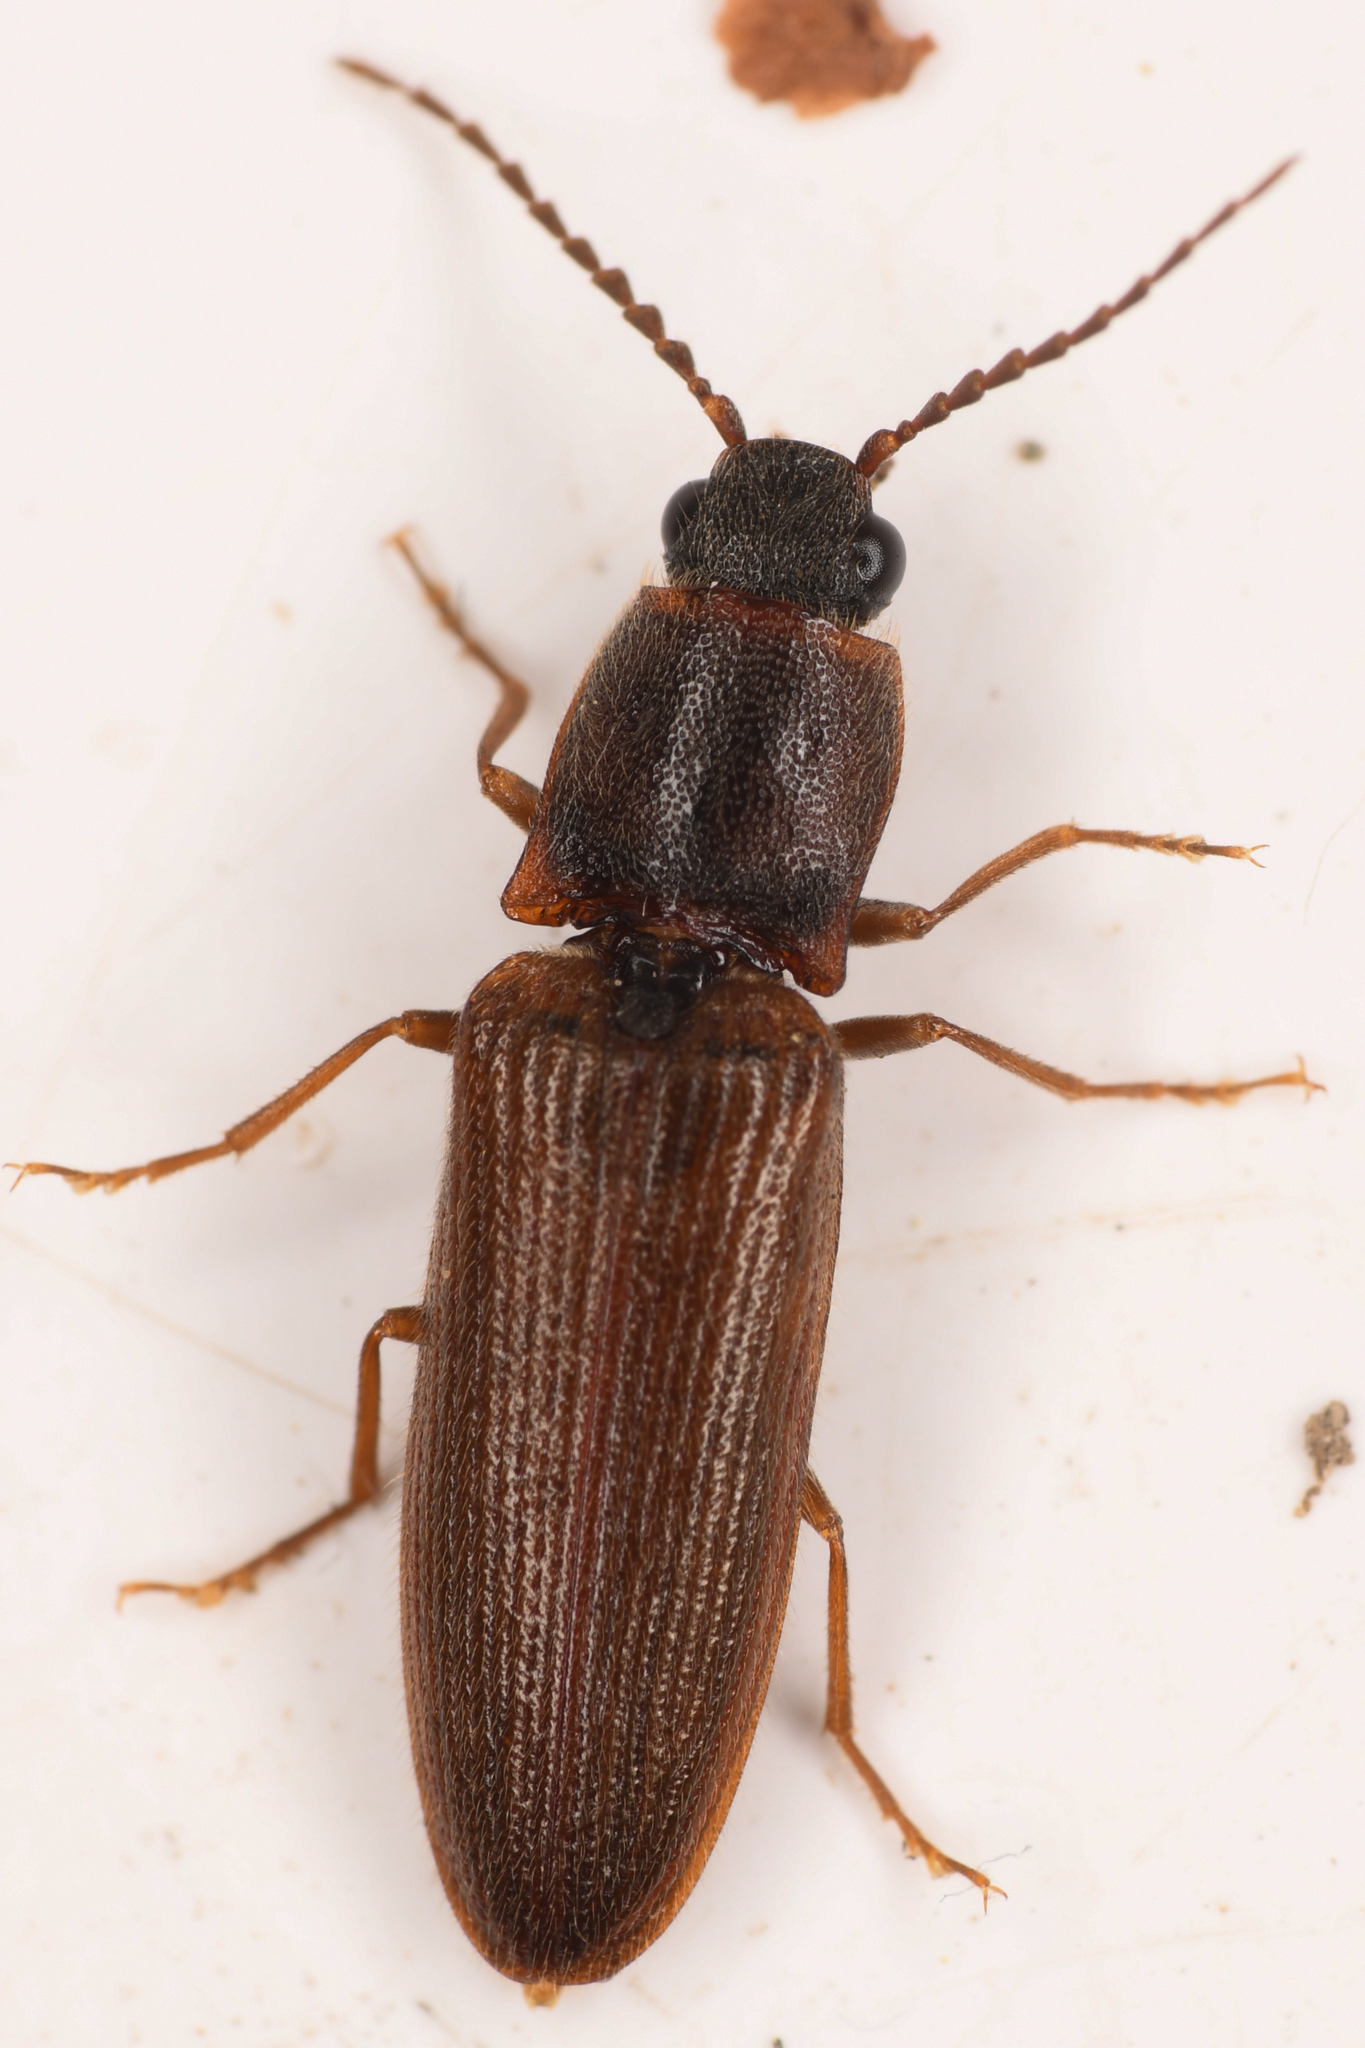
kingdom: Animalia
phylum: Arthropoda
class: Insecta
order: Coleoptera
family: Elateridae
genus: Athous
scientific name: Athous rufiventris
